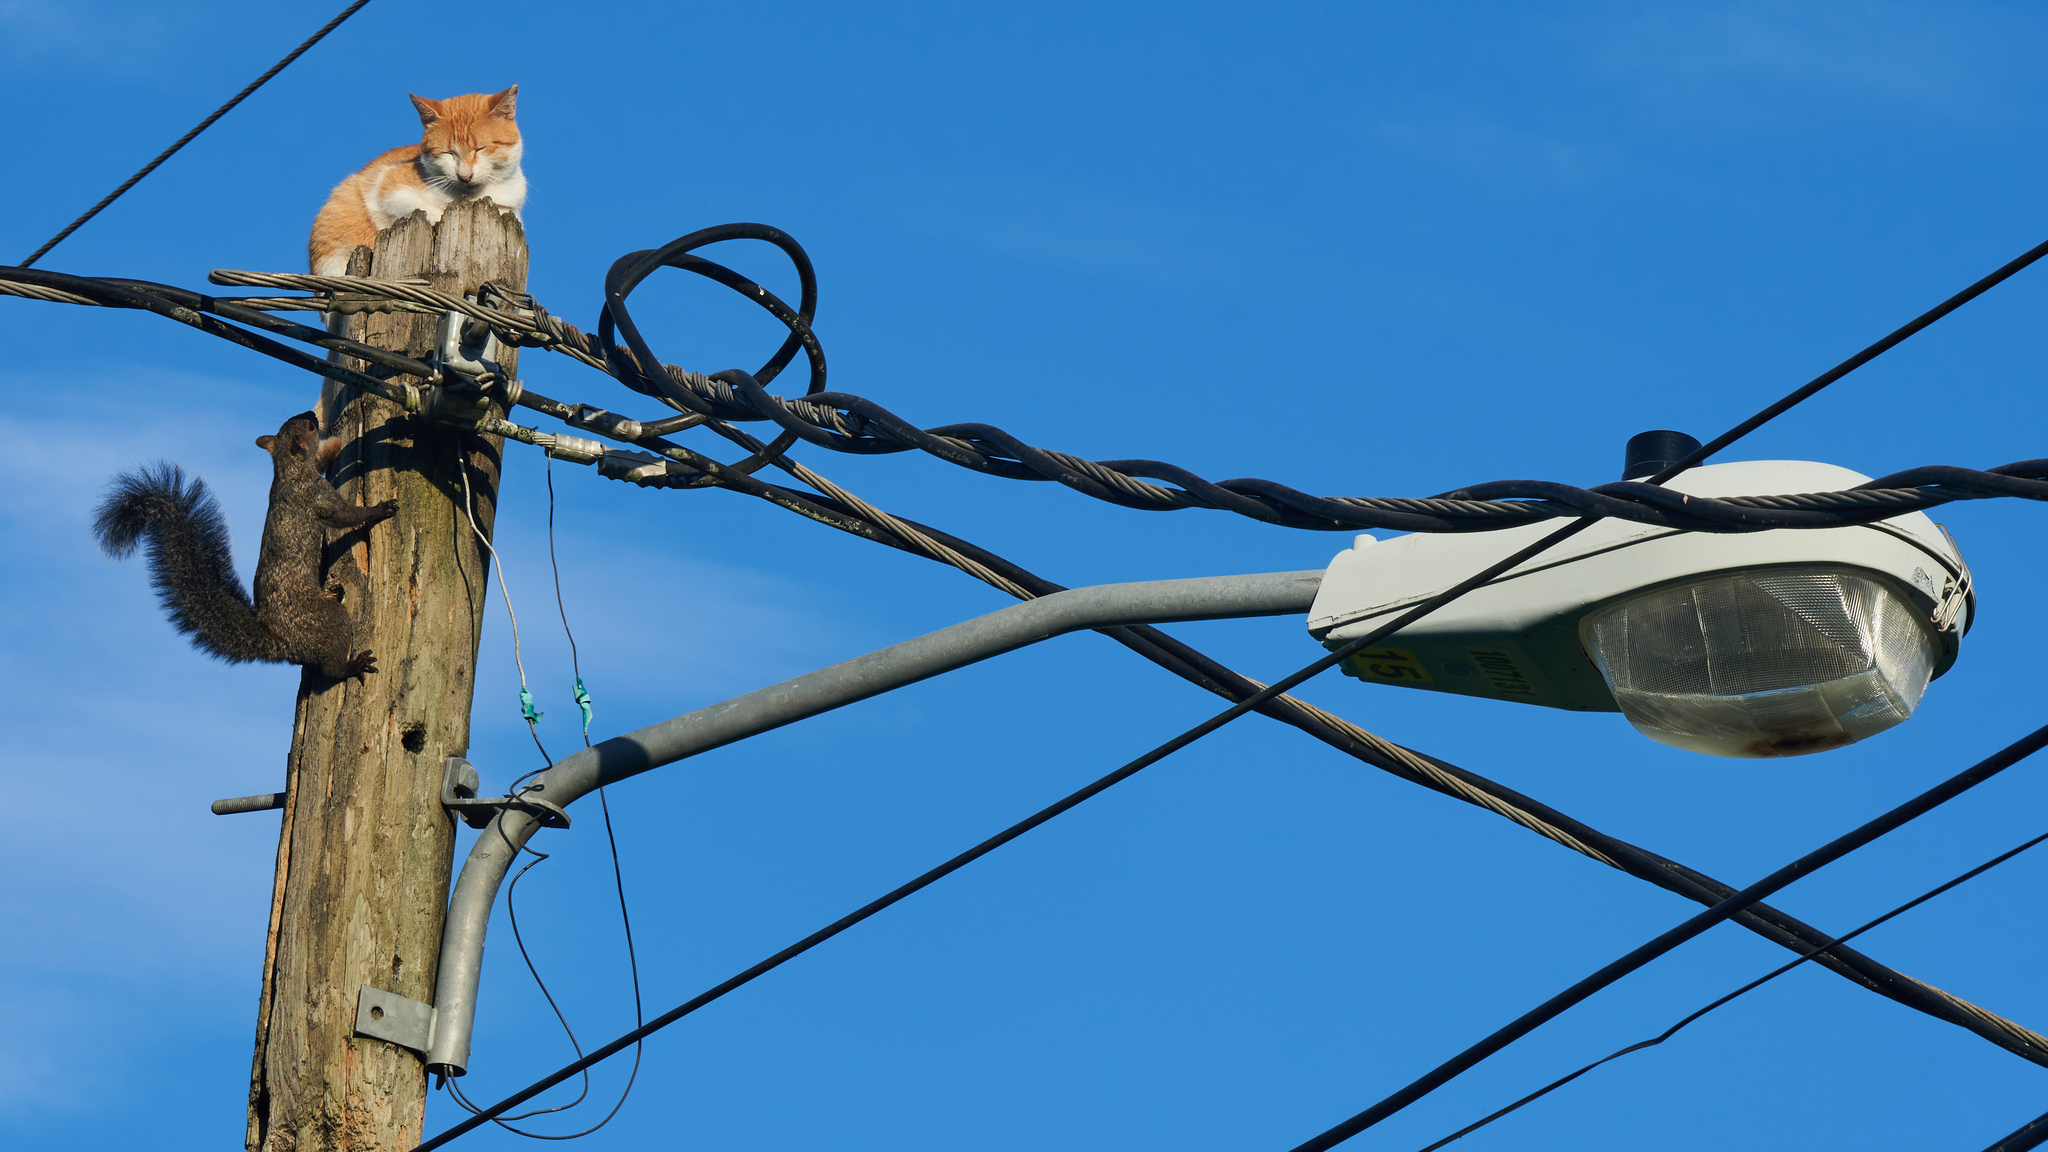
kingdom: Animalia
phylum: Chordata
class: Mammalia
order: Rodentia
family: Sciuridae
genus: Sciurus
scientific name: Sciurus yucatanensis
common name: Yucatan squirrel
